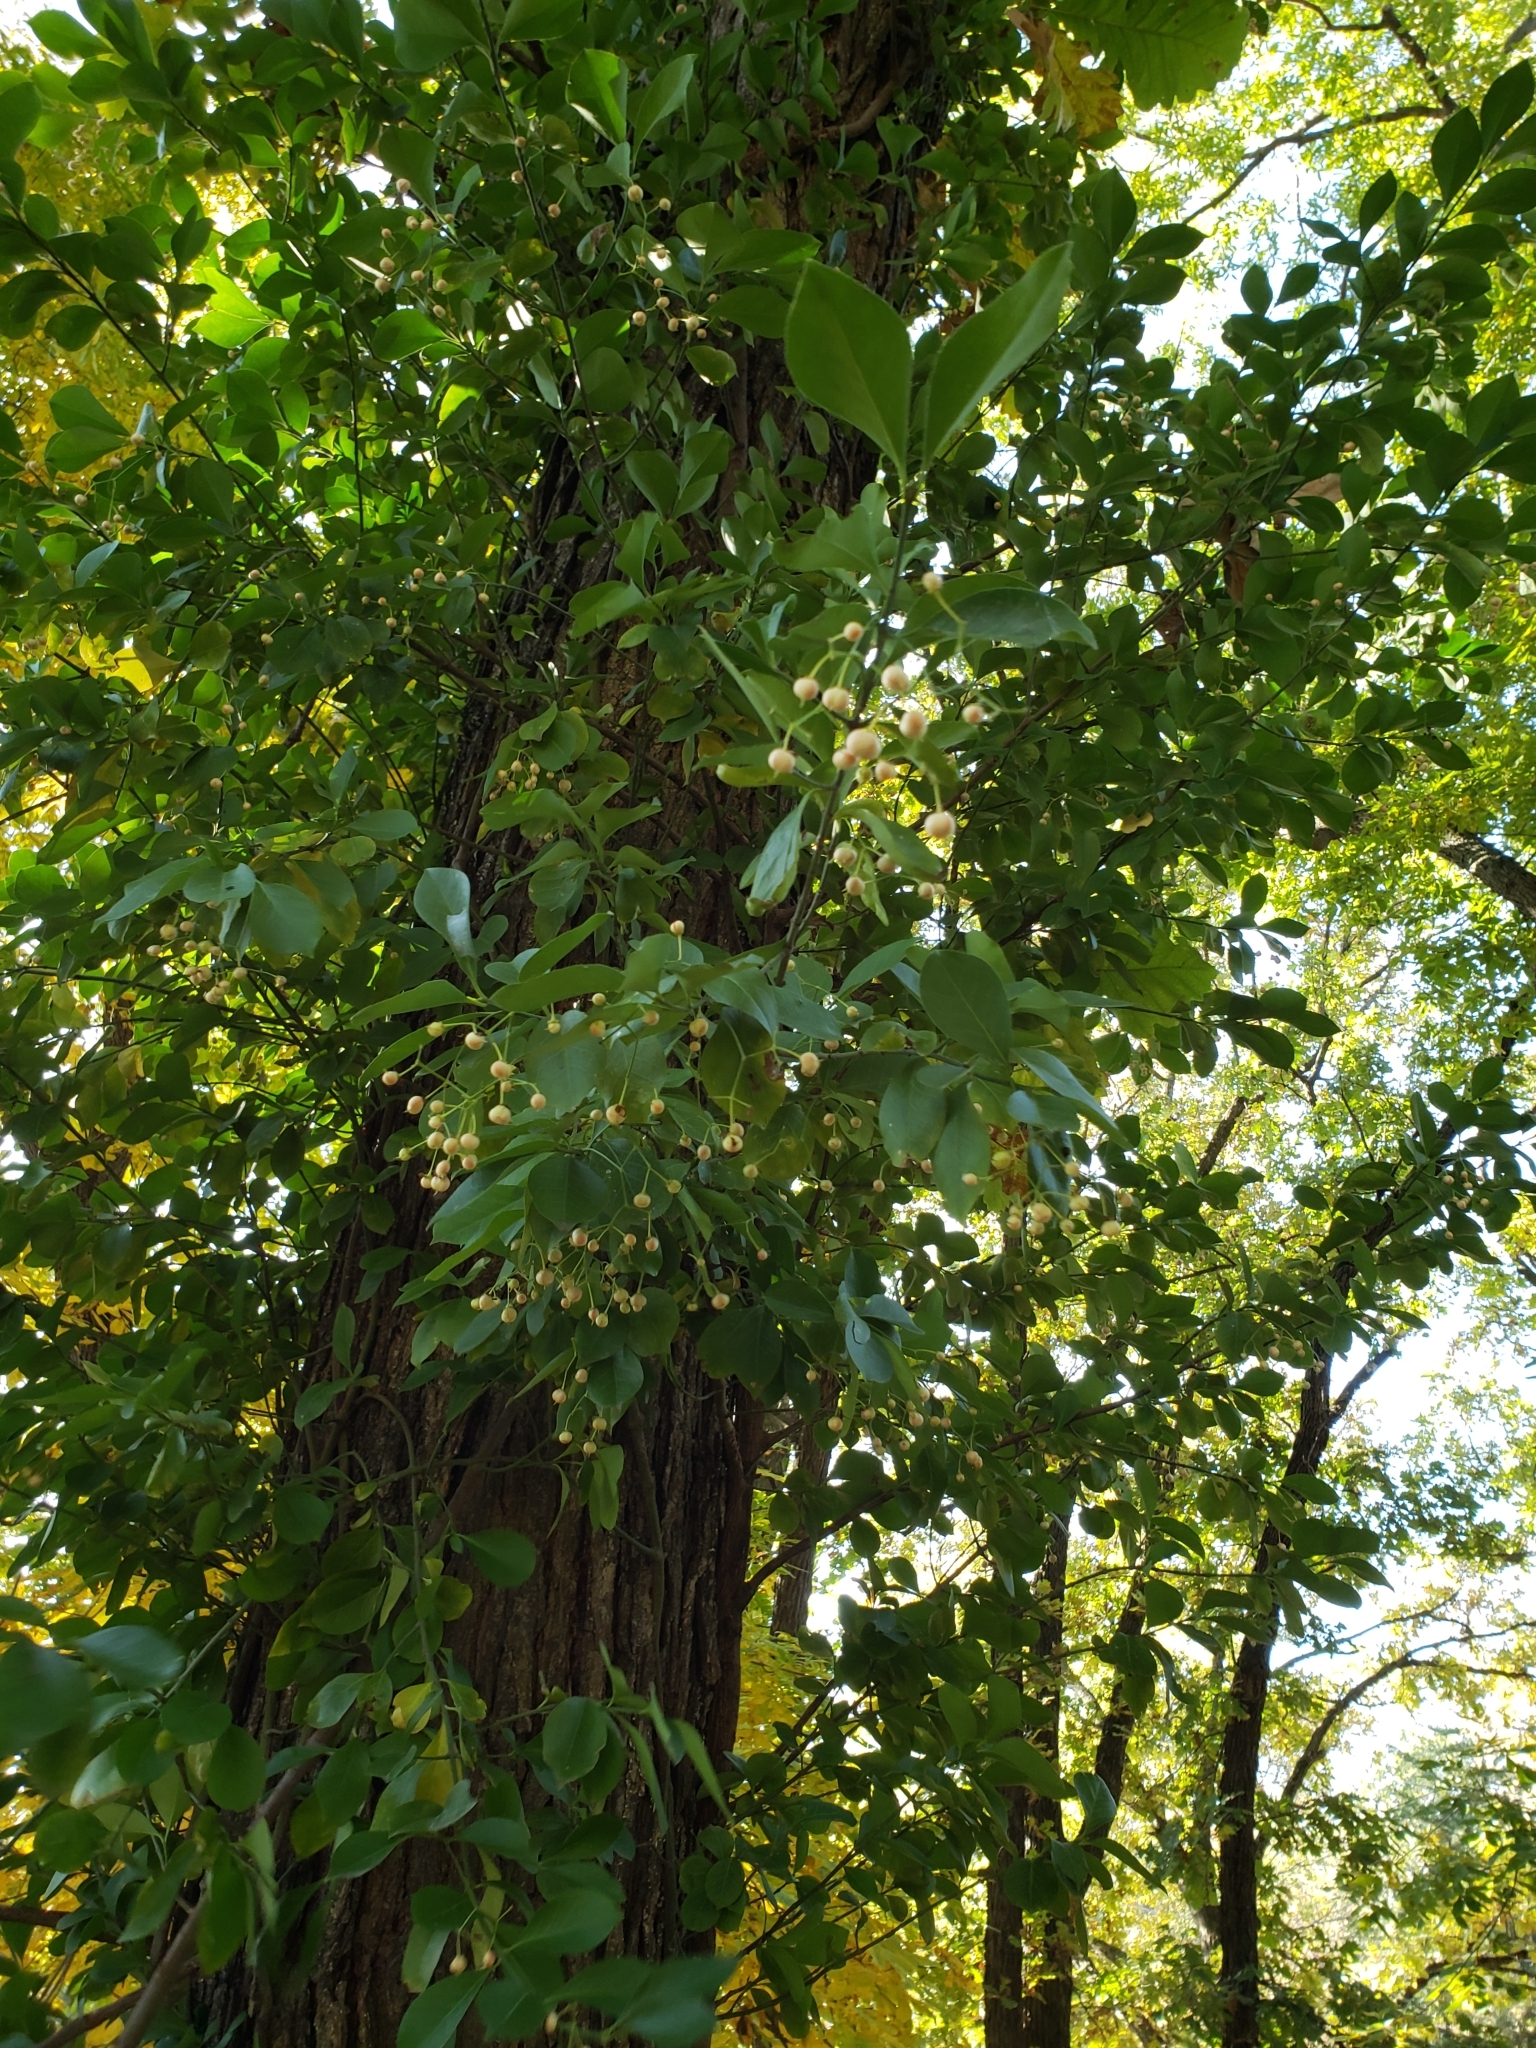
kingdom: Plantae
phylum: Tracheophyta
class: Magnoliopsida
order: Celastrales
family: Celastraceae
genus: Euonymus
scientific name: Euonymus fortunei
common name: Climbing euonymus
